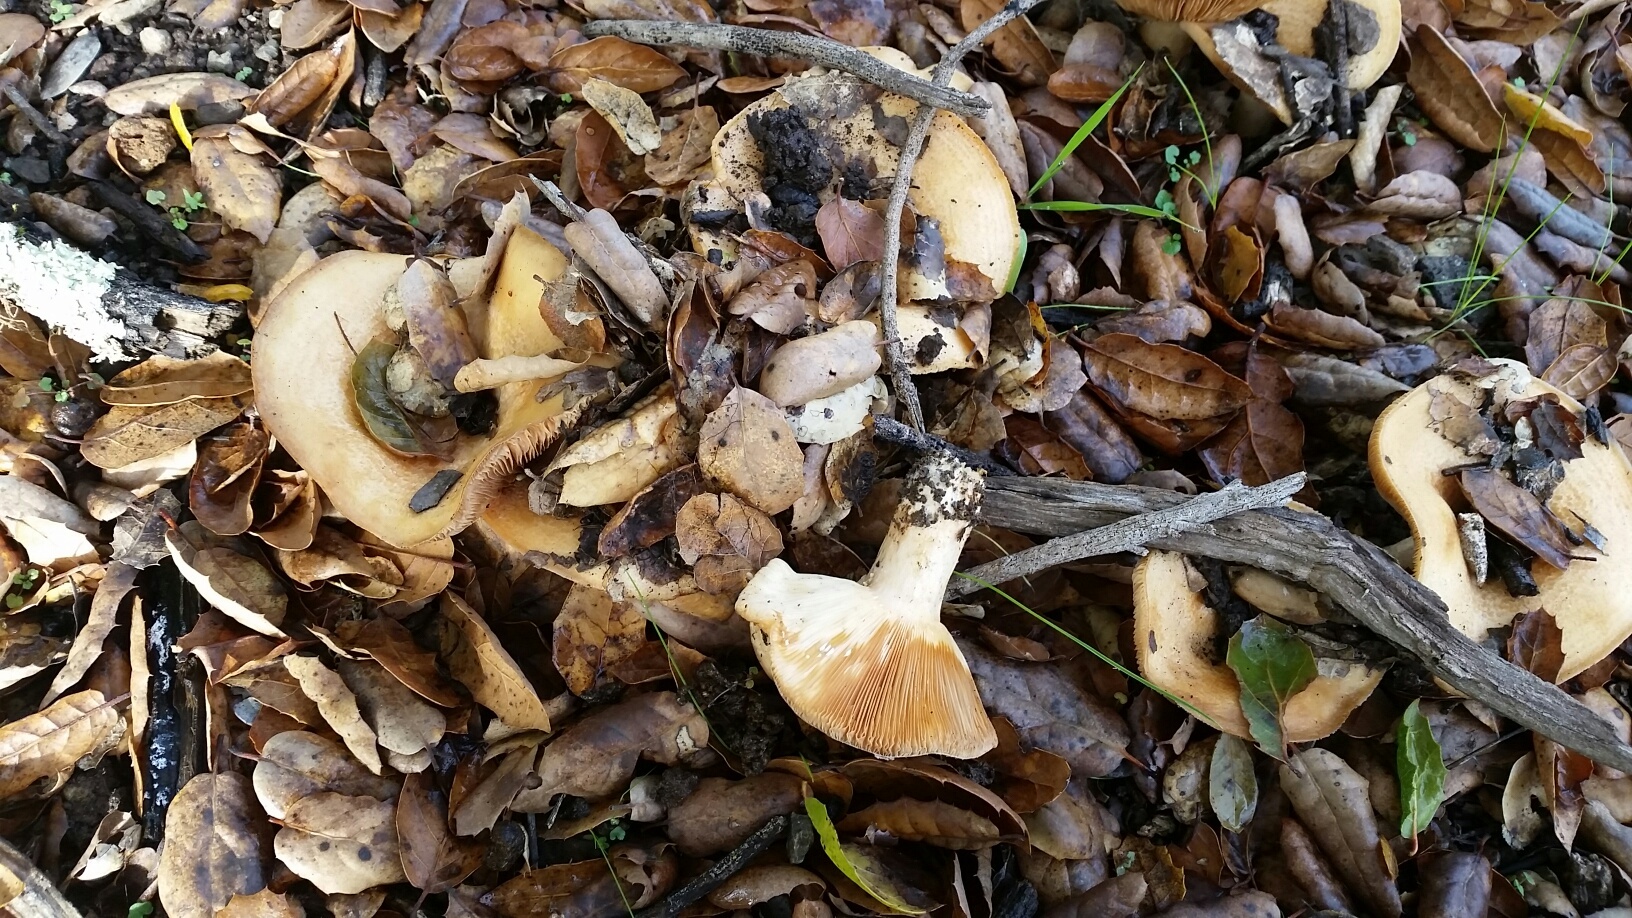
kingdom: Fungi
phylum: Basidiomycota
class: Agaricomycetes
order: Russulales
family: Russulaceae
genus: Lactarius
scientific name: Lactarius alnicola
